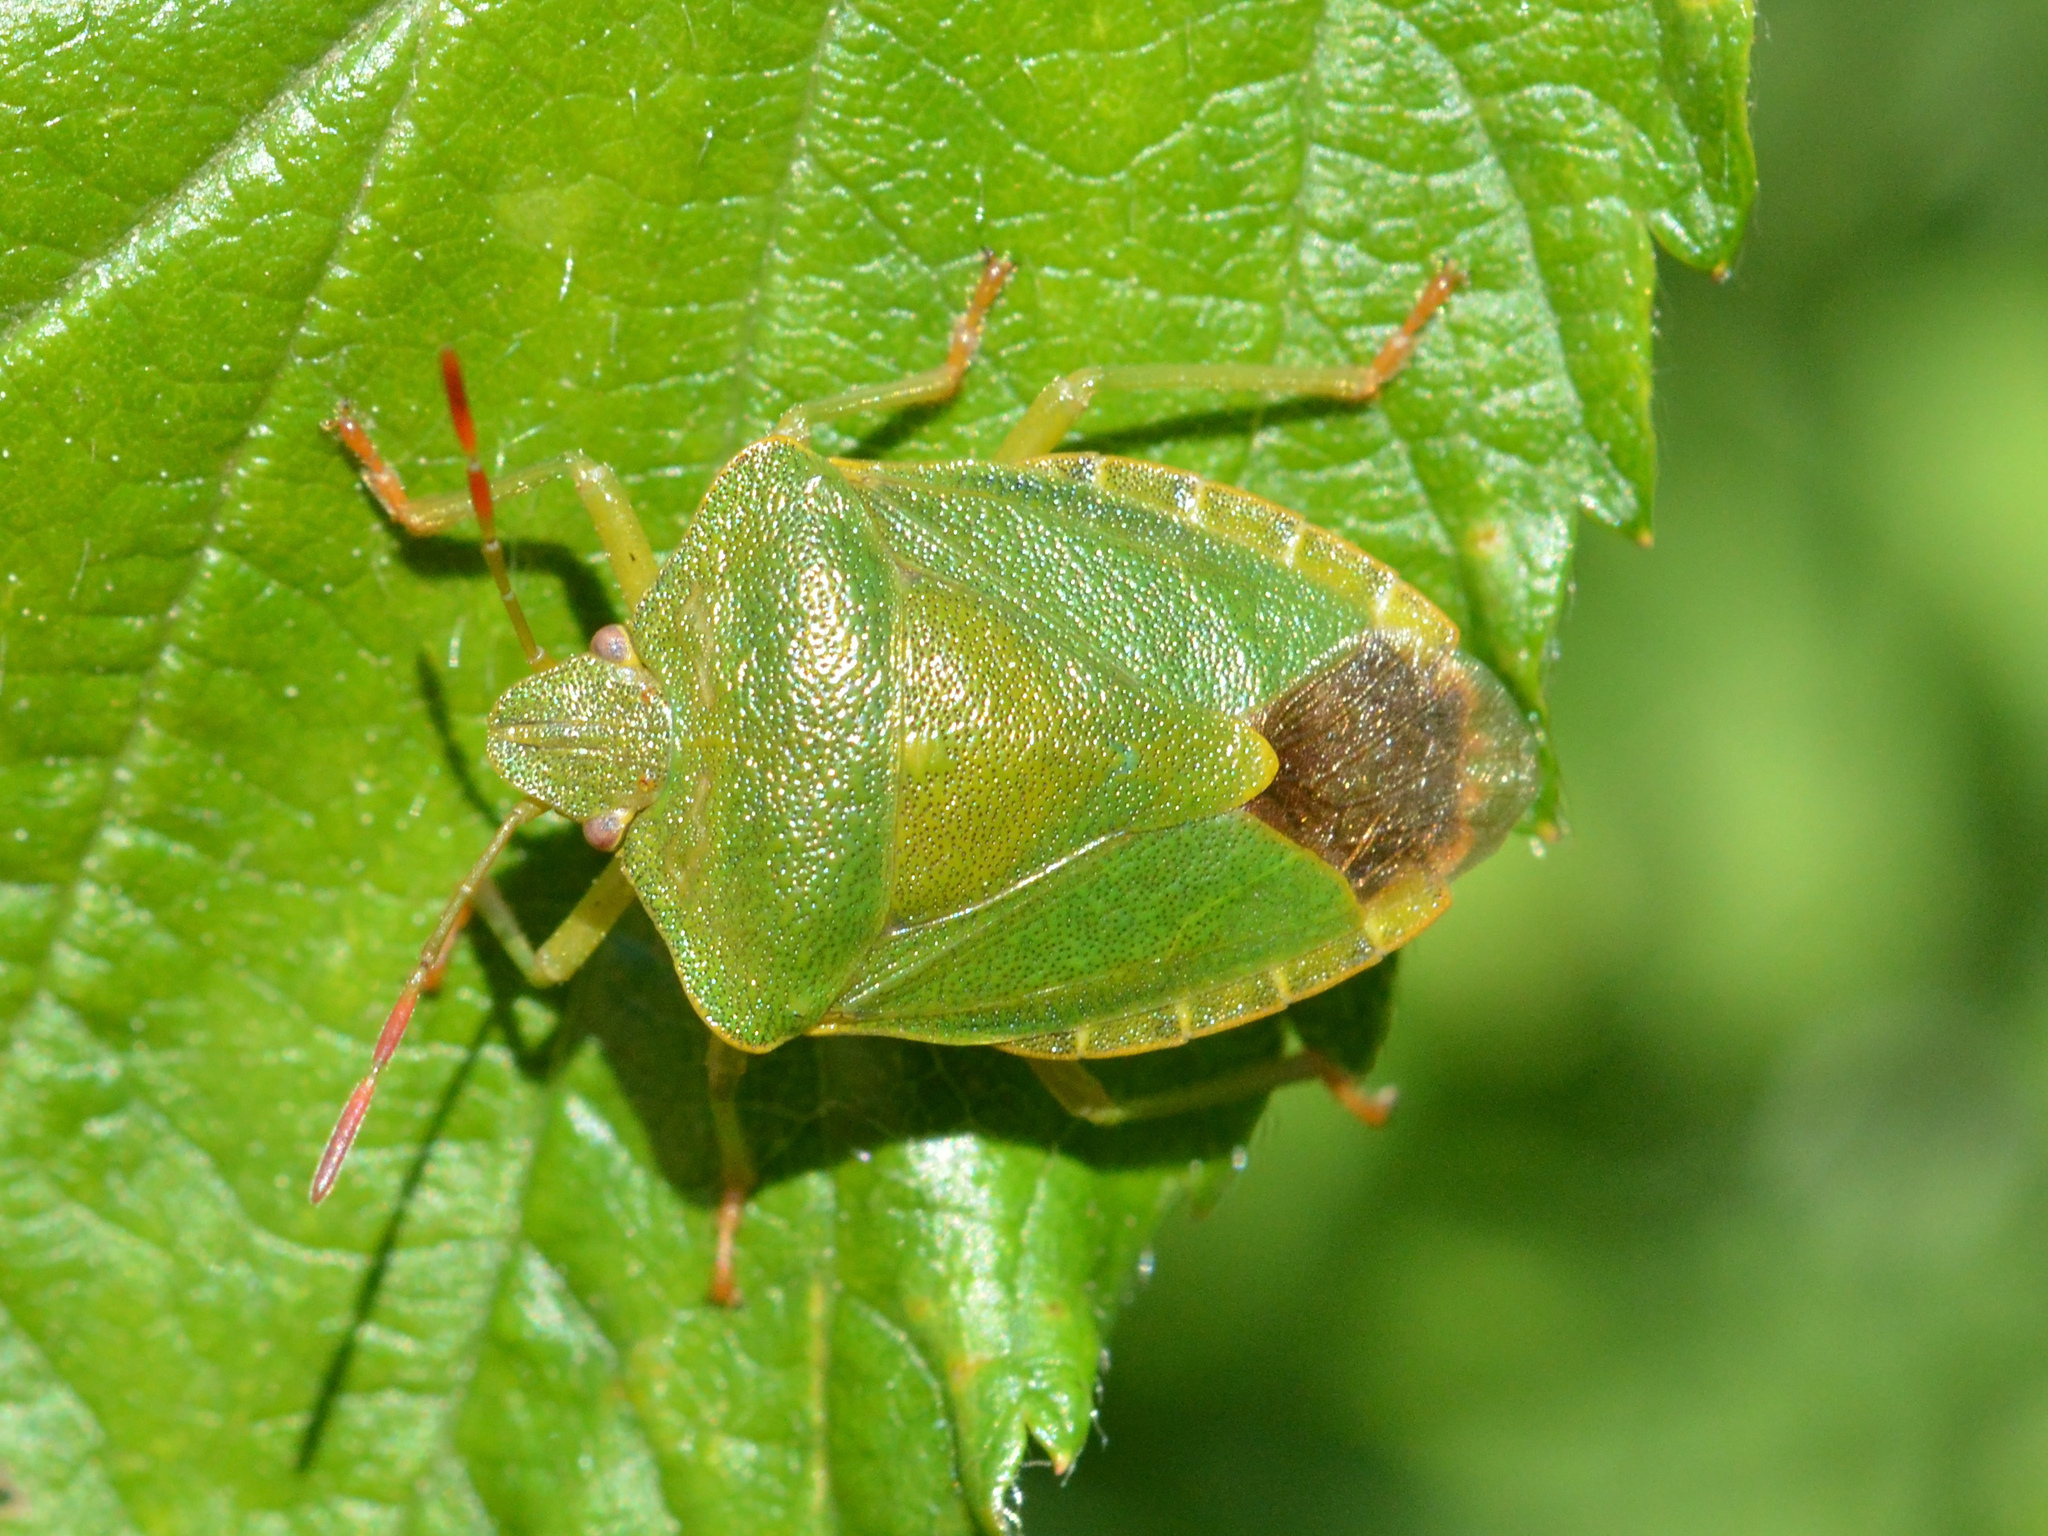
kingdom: Animalia
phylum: Arthropoda
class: Insecta
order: Hemiptera
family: Pentatomidae
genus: Palomena
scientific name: Palomena prasina
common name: Green shieldbug
